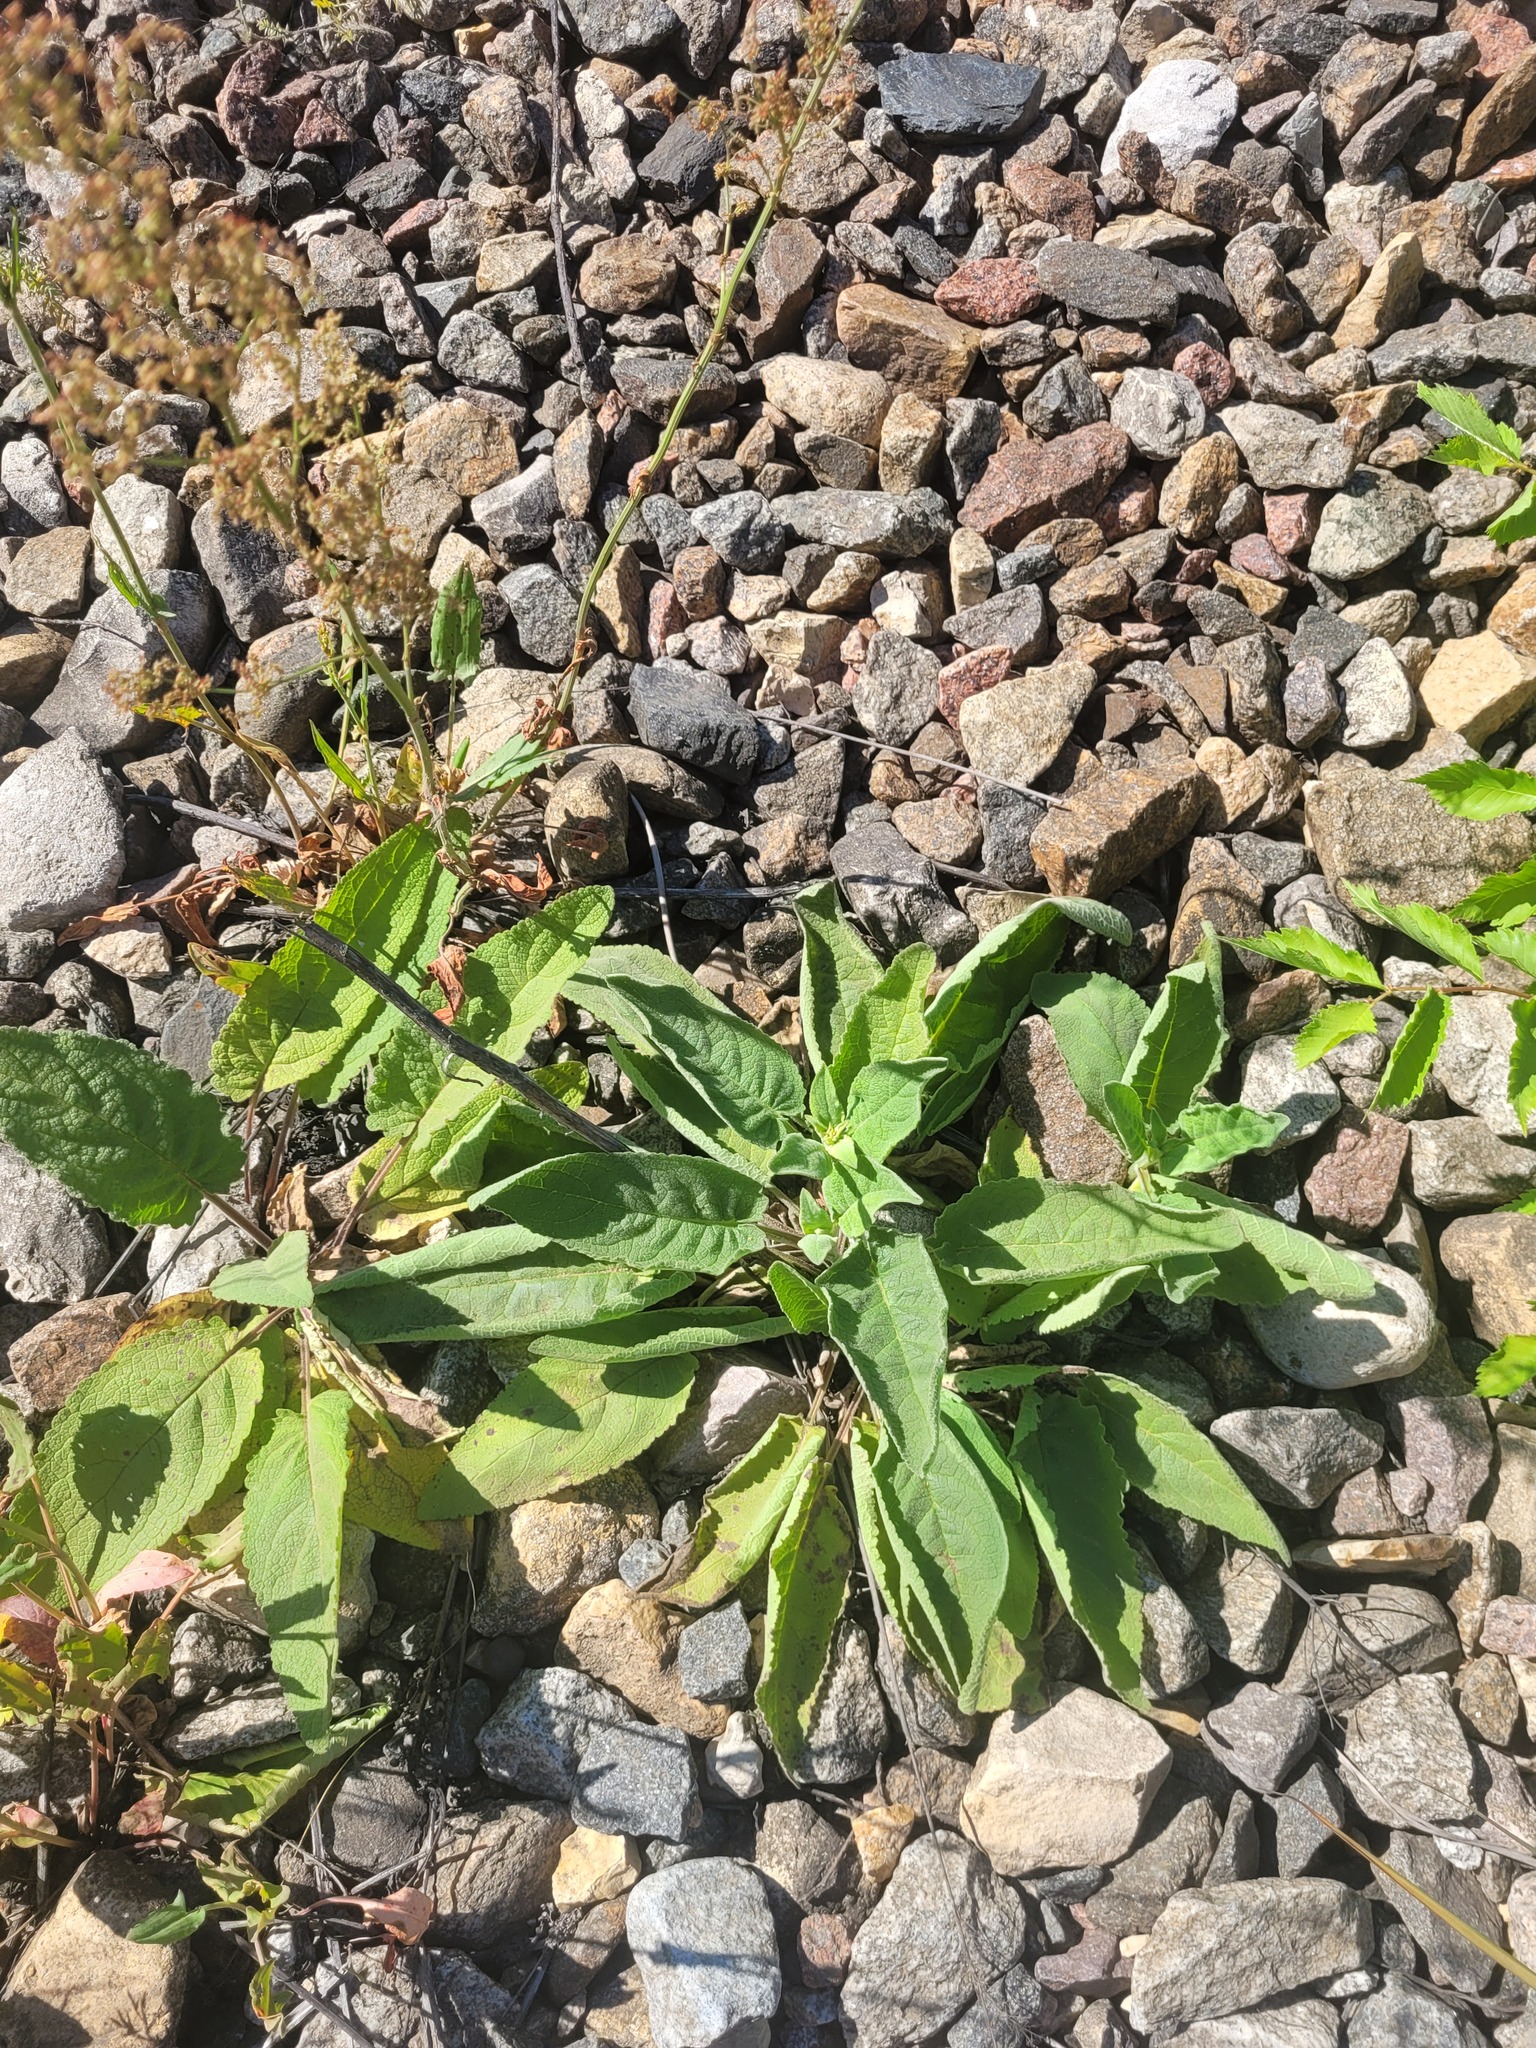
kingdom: Plantae
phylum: Tracheophyta
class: Magnoliopsida
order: Lamiales
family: Scrophulariaceae
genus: Verbascum
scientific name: Verbascum nigrum
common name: Dark mullein
